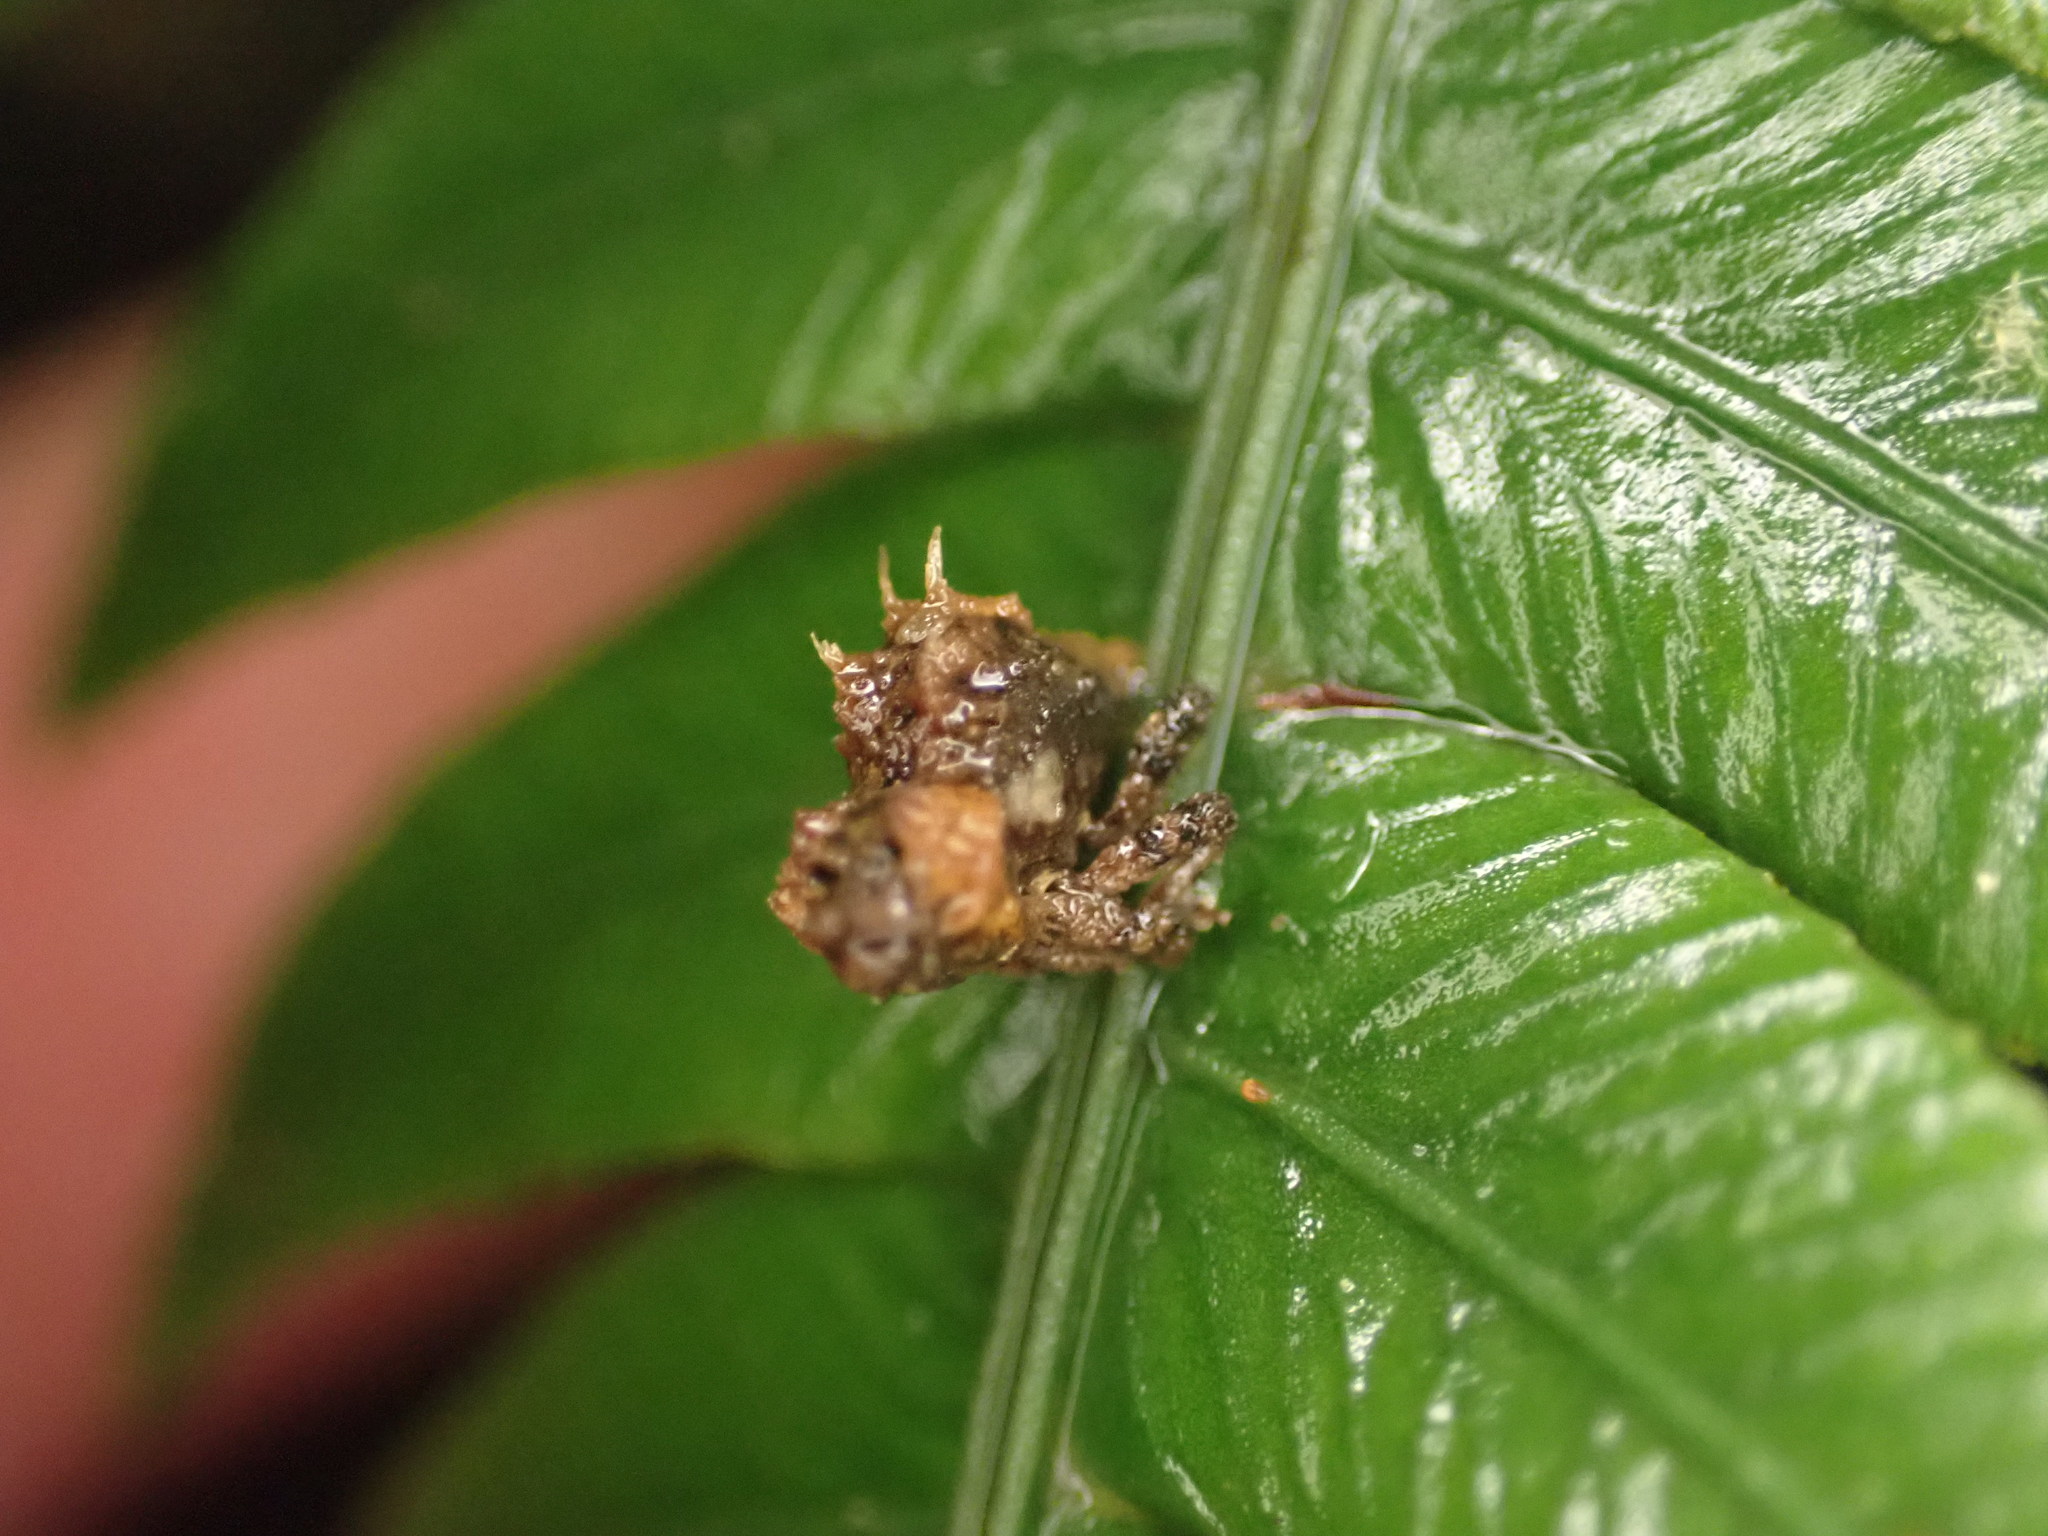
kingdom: Animalia
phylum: Arthropoda
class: Insecta
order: Coleoptera
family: Curculionidae
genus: Indecentia
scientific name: Indecentia nubila
